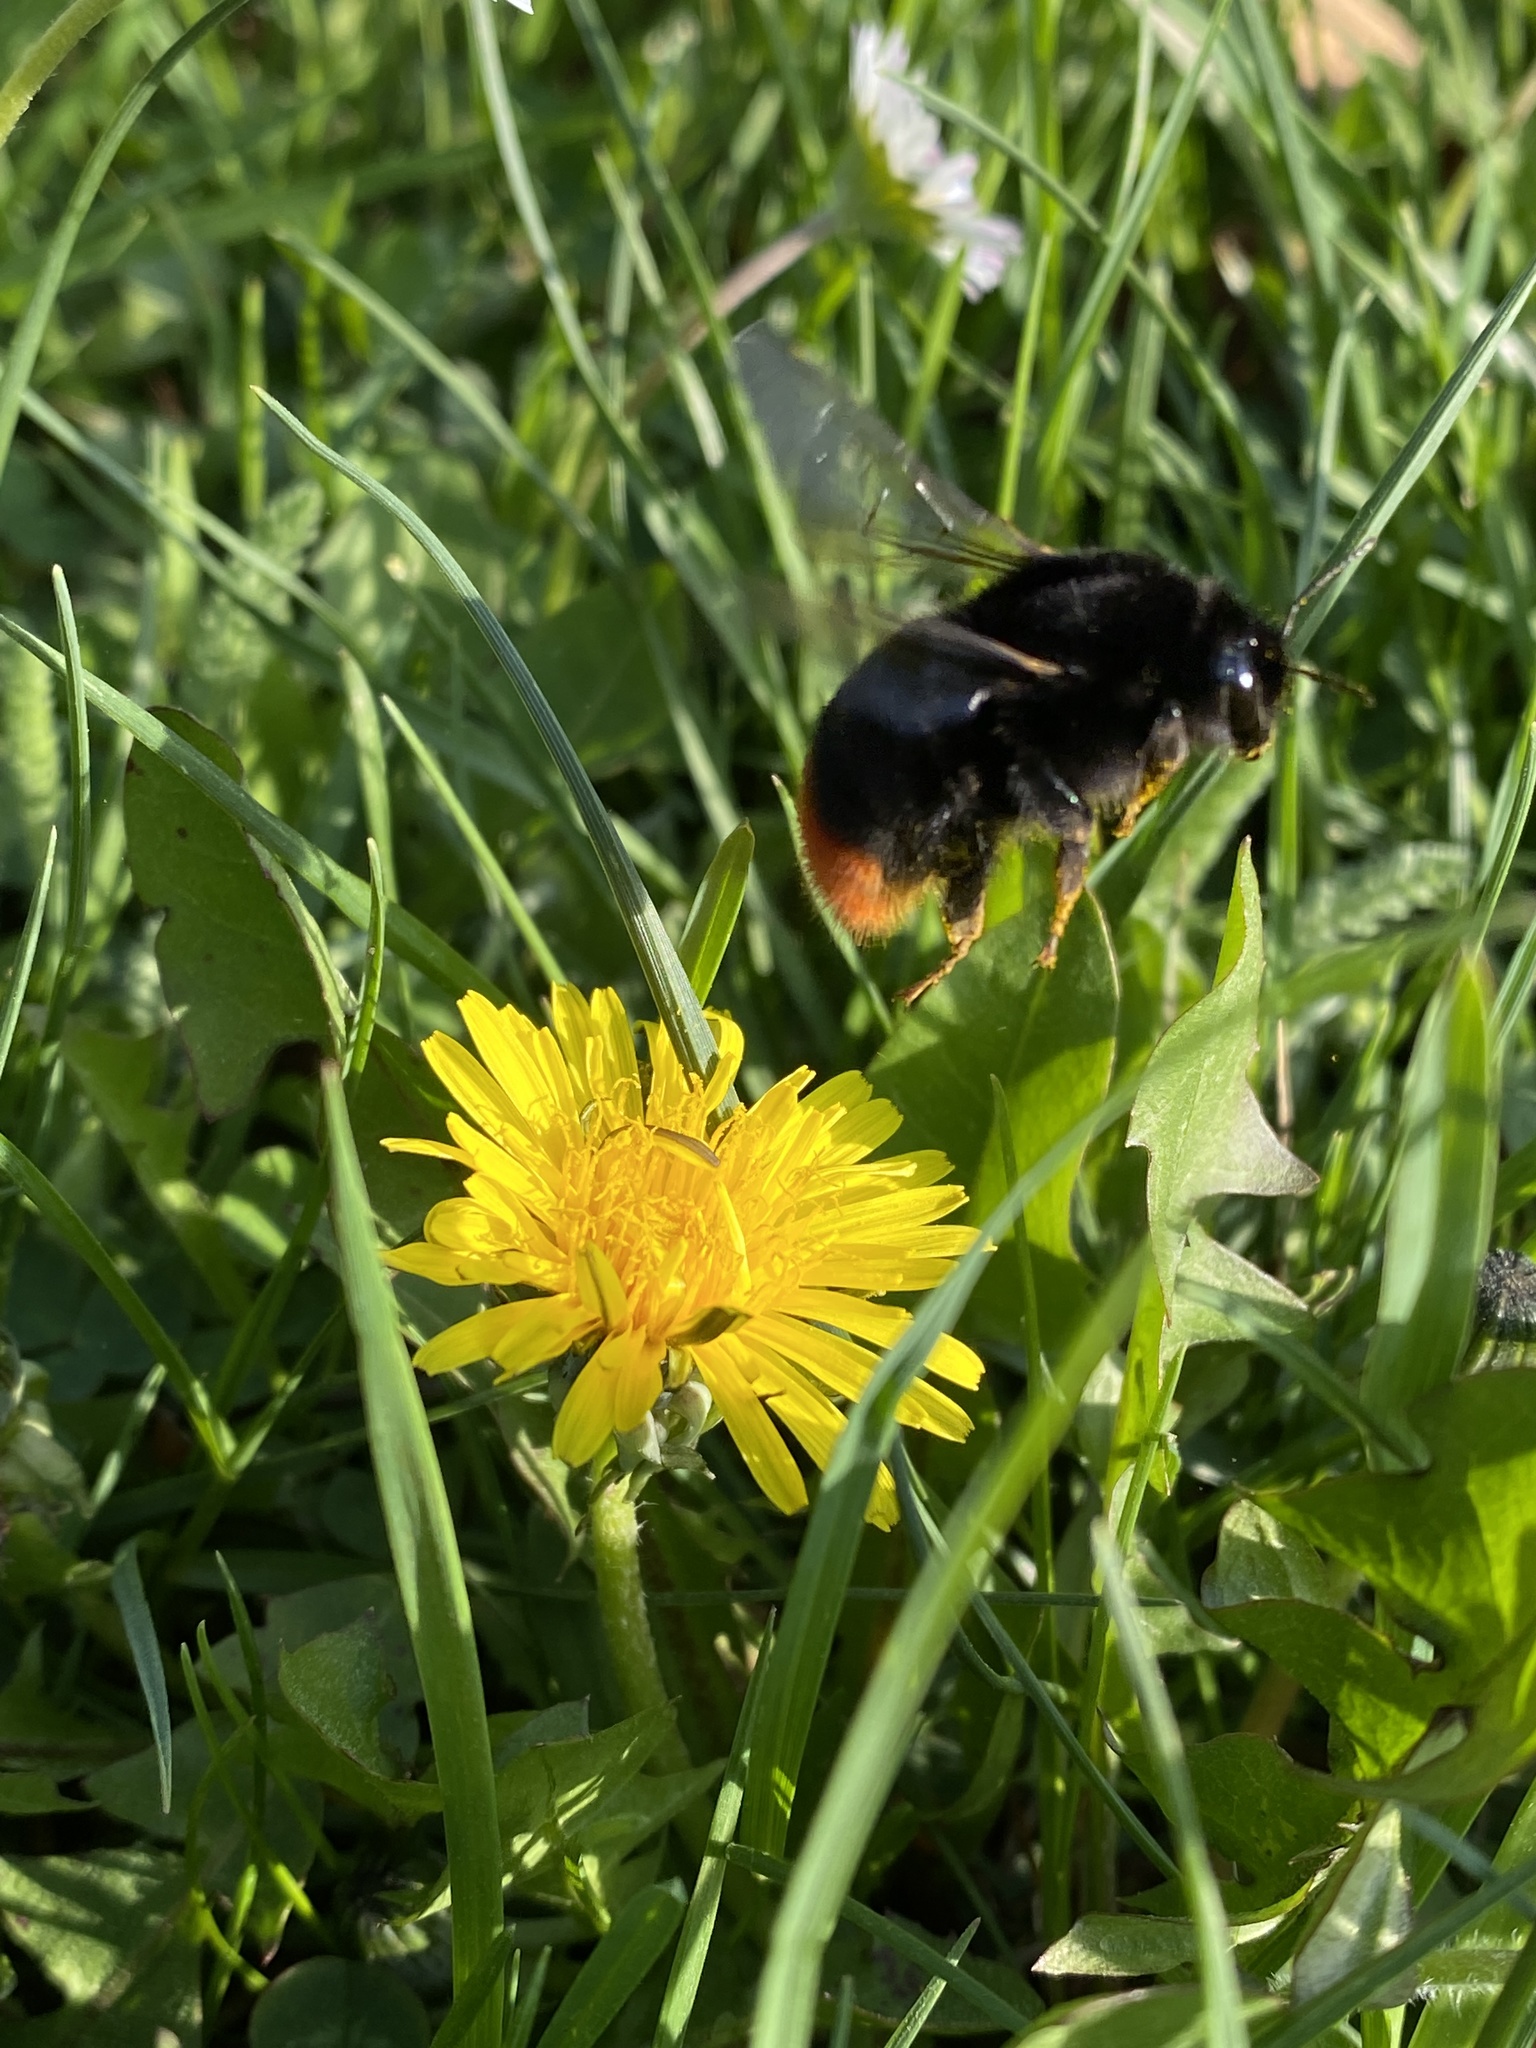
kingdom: Animalia
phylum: Arthropoda
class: Insecta
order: Hymenoptera
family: Apidae
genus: Bombus
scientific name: Bombus lapidarius
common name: Large red-tailed humble-bee
